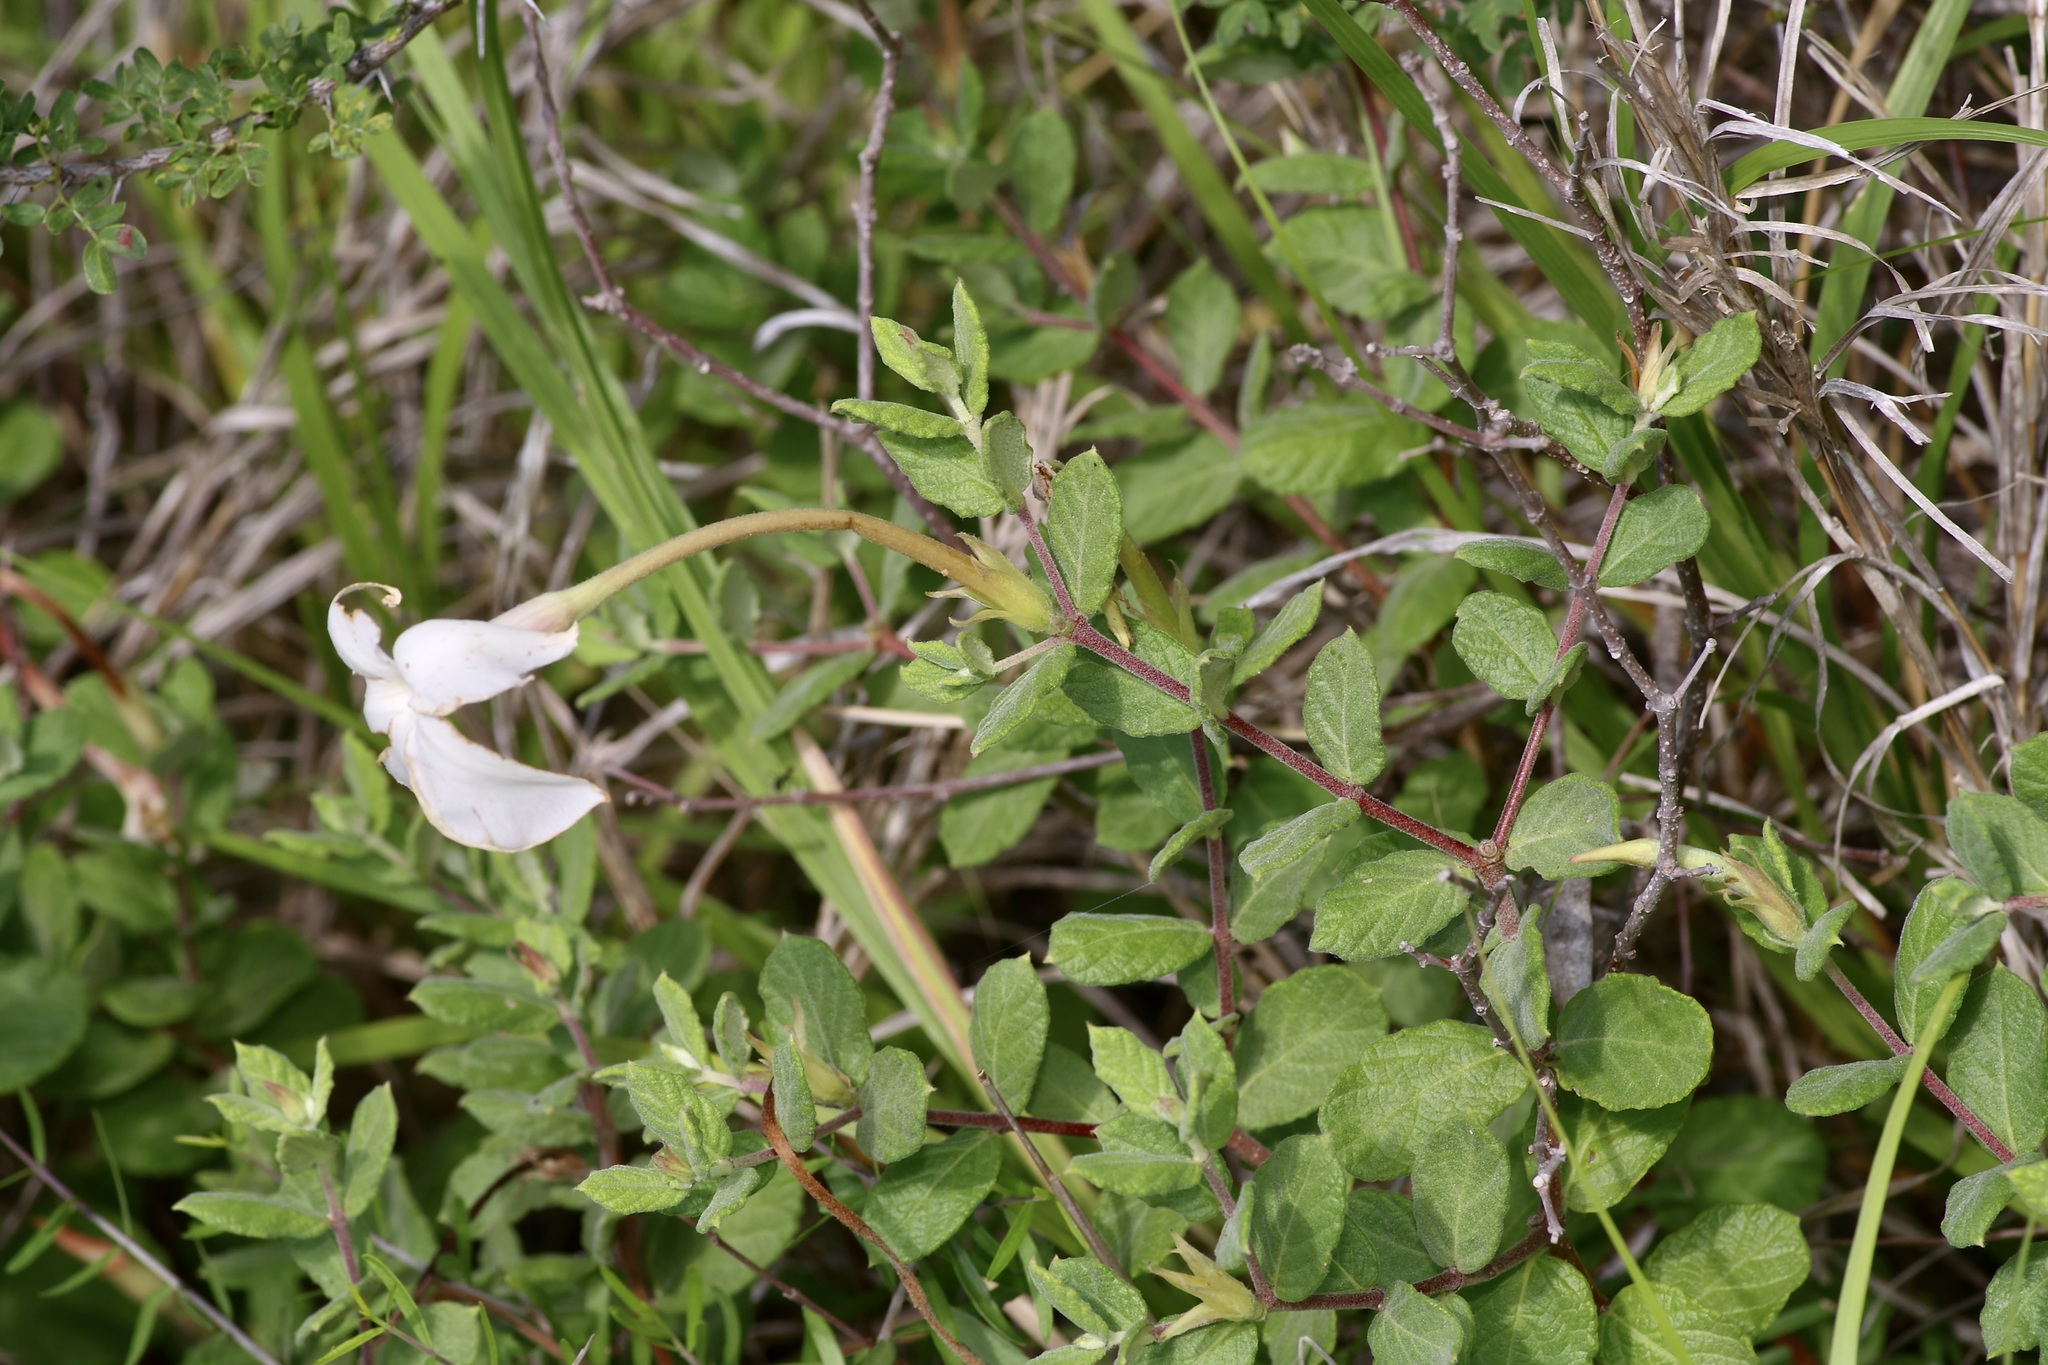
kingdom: Plantae
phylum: Tracheophyta
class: Magnoliopsida
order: Gentianales
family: Apocynaceae
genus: Mandevilla
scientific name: Mandevilla lanuginosa
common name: Plateau rocktrumpet
